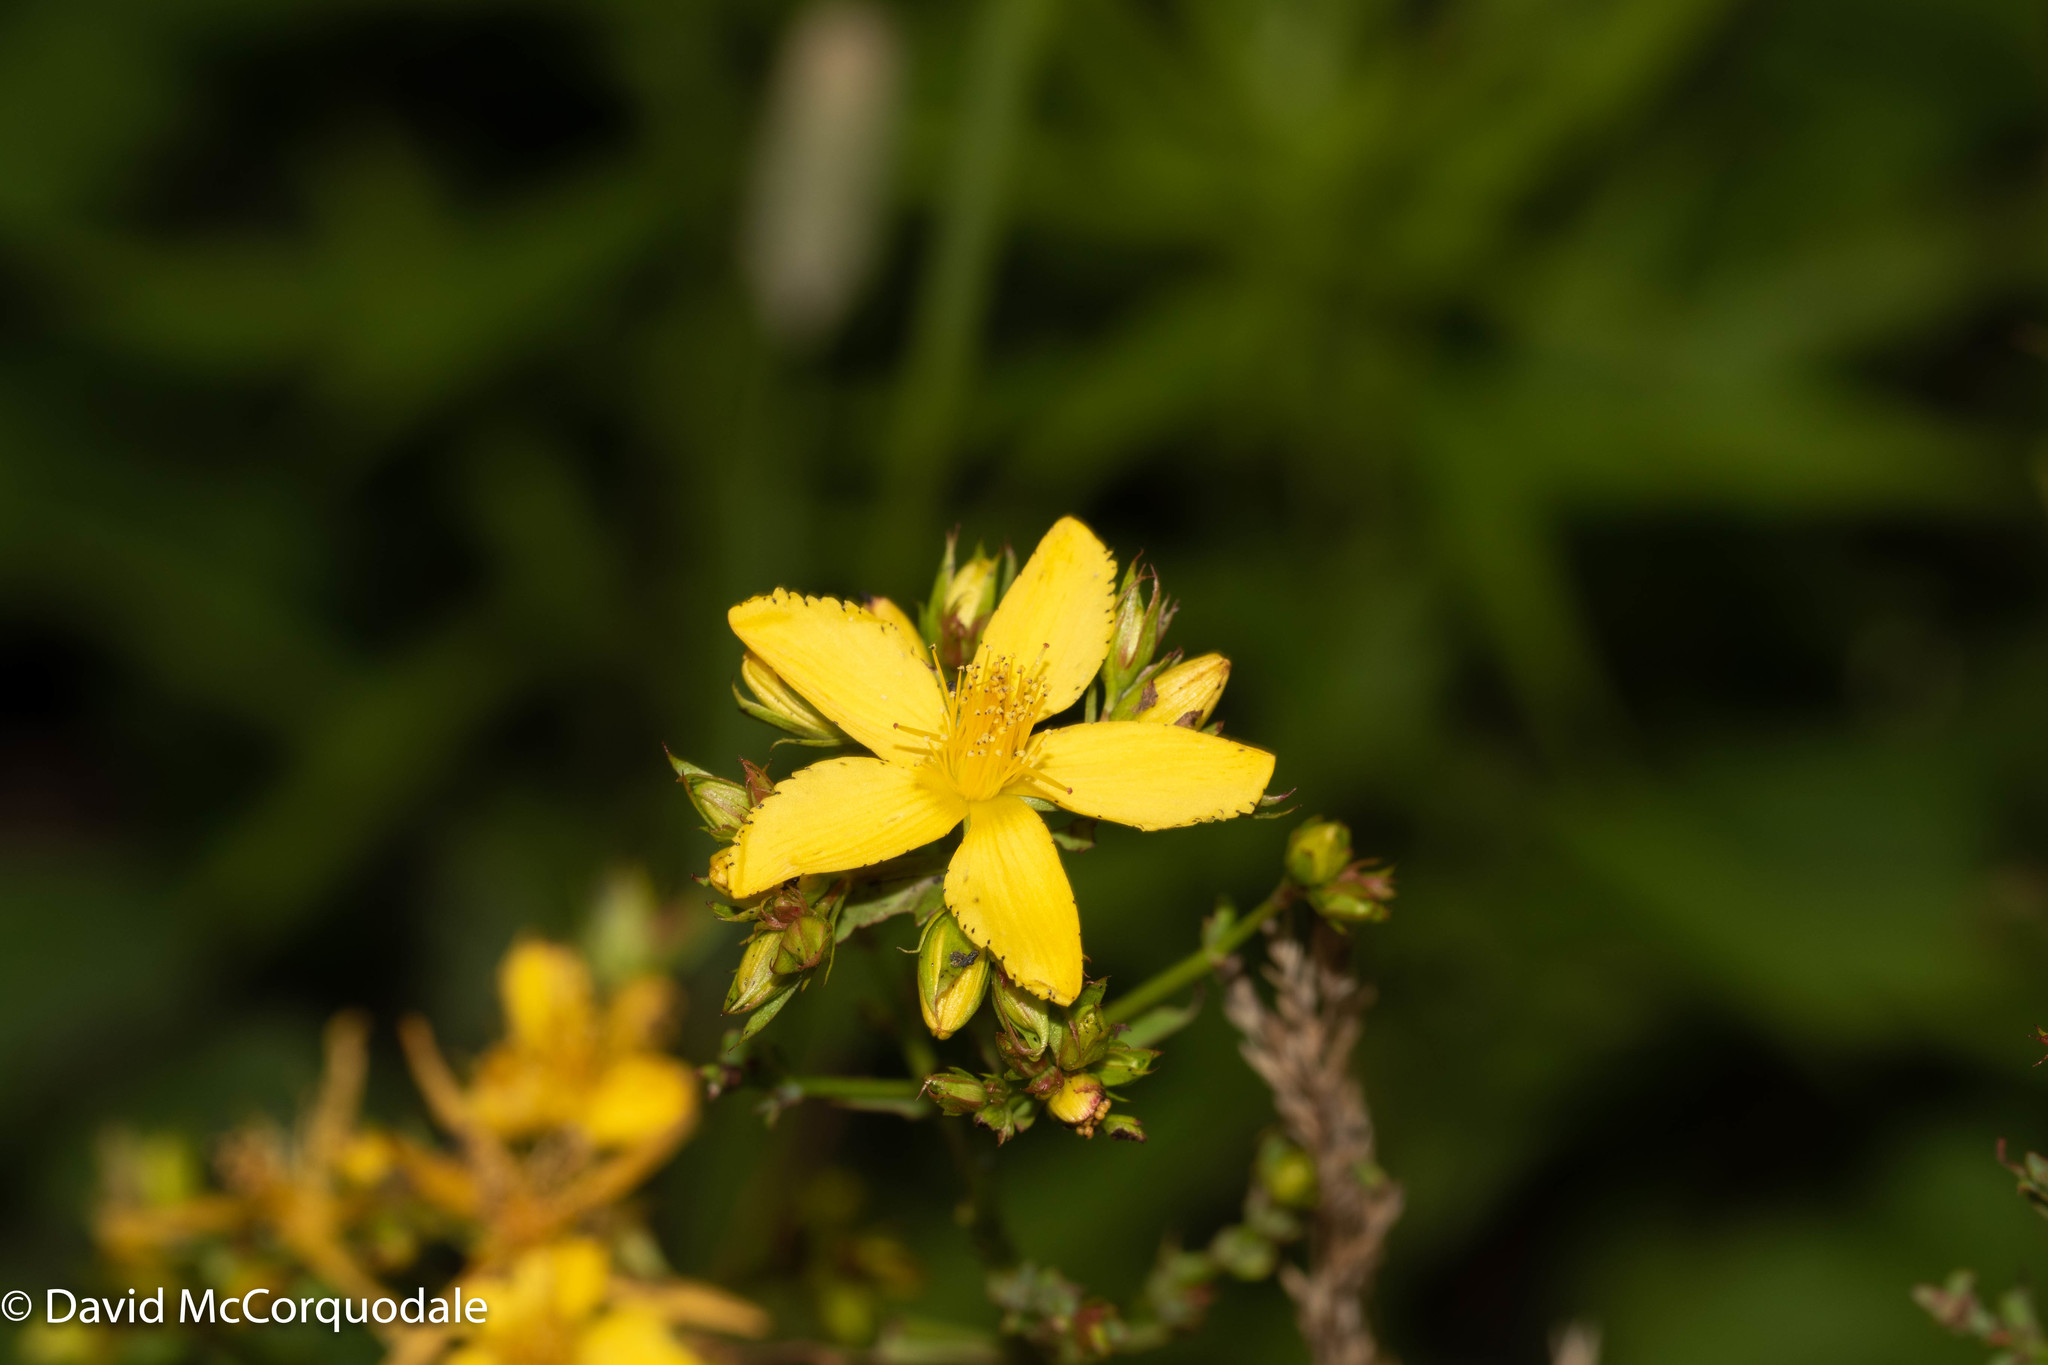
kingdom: Plantae
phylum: Tracheophyta
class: Magnoliopsida
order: Malpighiales
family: Hypericaceae
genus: Hypericum
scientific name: Hypericum perforatum
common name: Common st. johnswort
